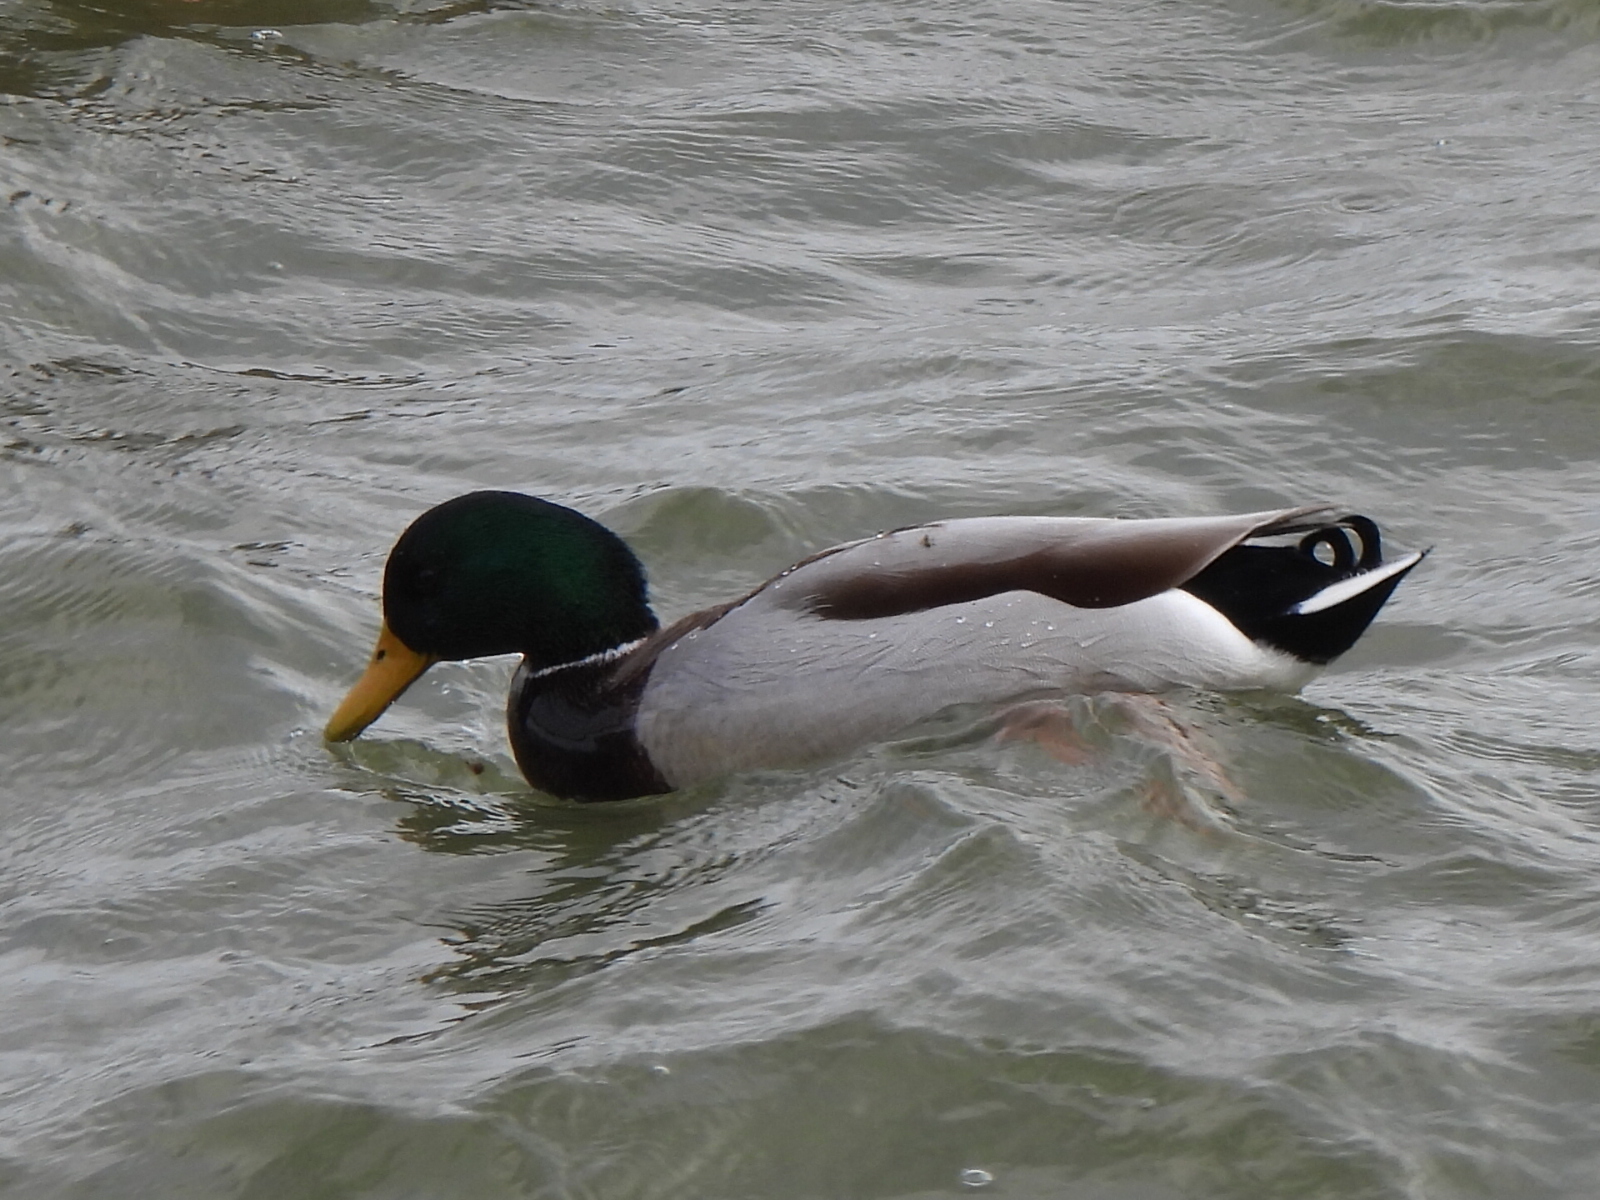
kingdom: Animalia
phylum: Chordata
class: Aves
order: Anseriformes
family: Anatidae
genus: Anas
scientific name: Anas platyrhynchos
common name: Mallard
